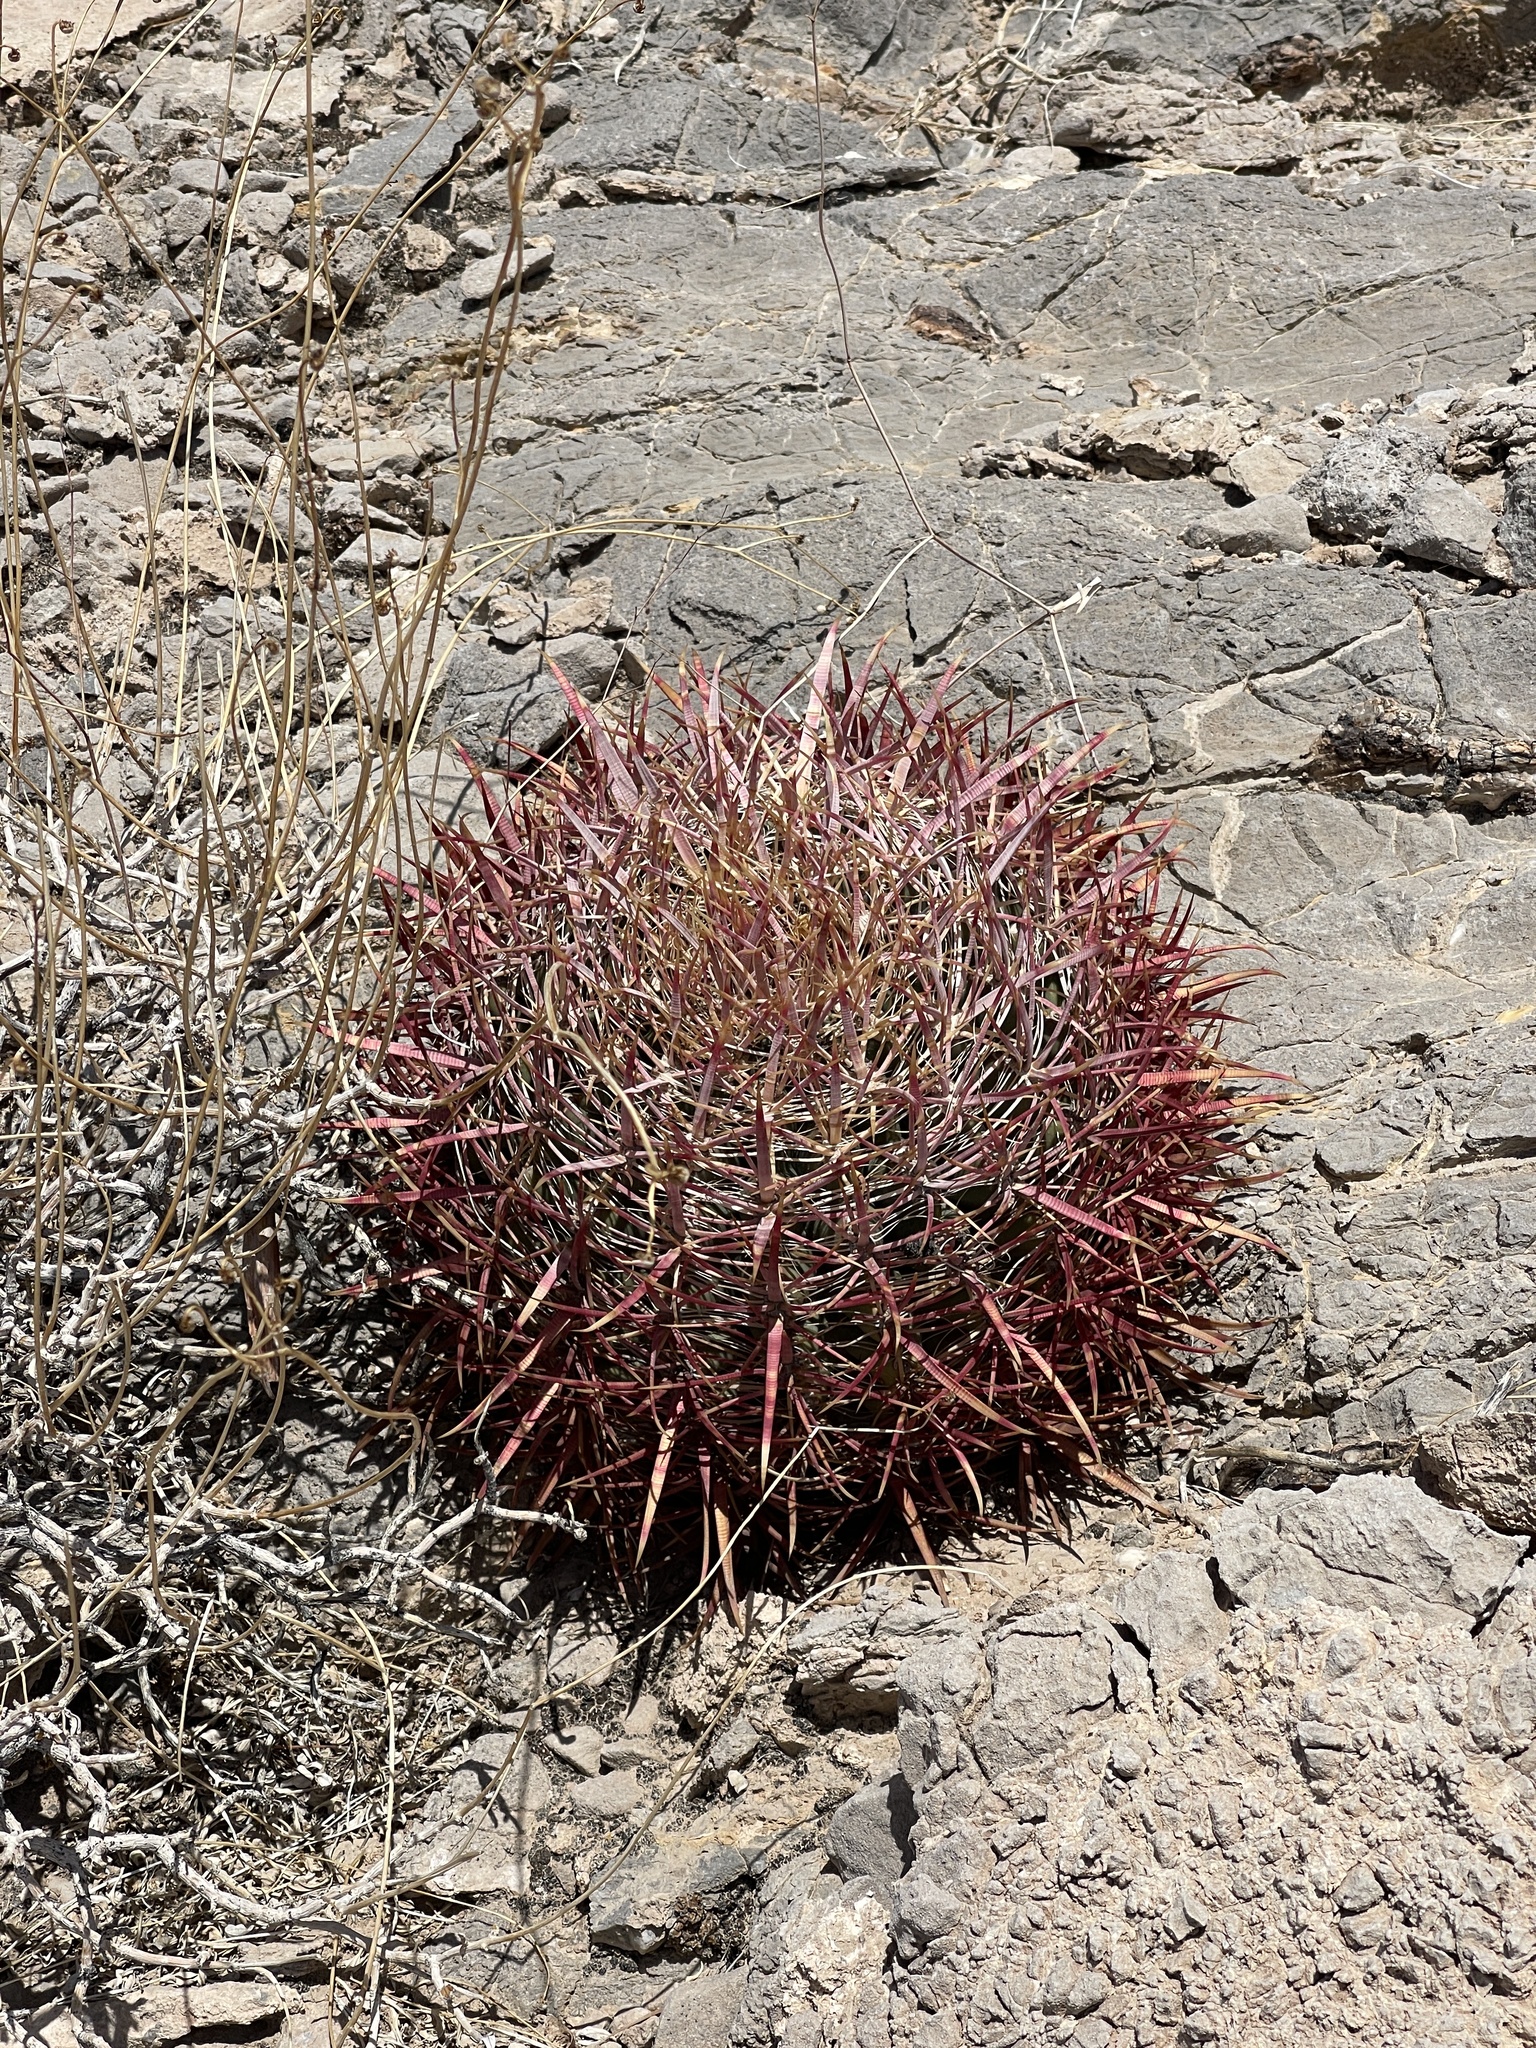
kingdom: Plantae
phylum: Tracheophyta
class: Magnoliopsida
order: Caryophyllales
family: Cactaceae
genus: Ferocactus
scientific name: Ferocactus cylindraceus
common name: California barrel cactus
